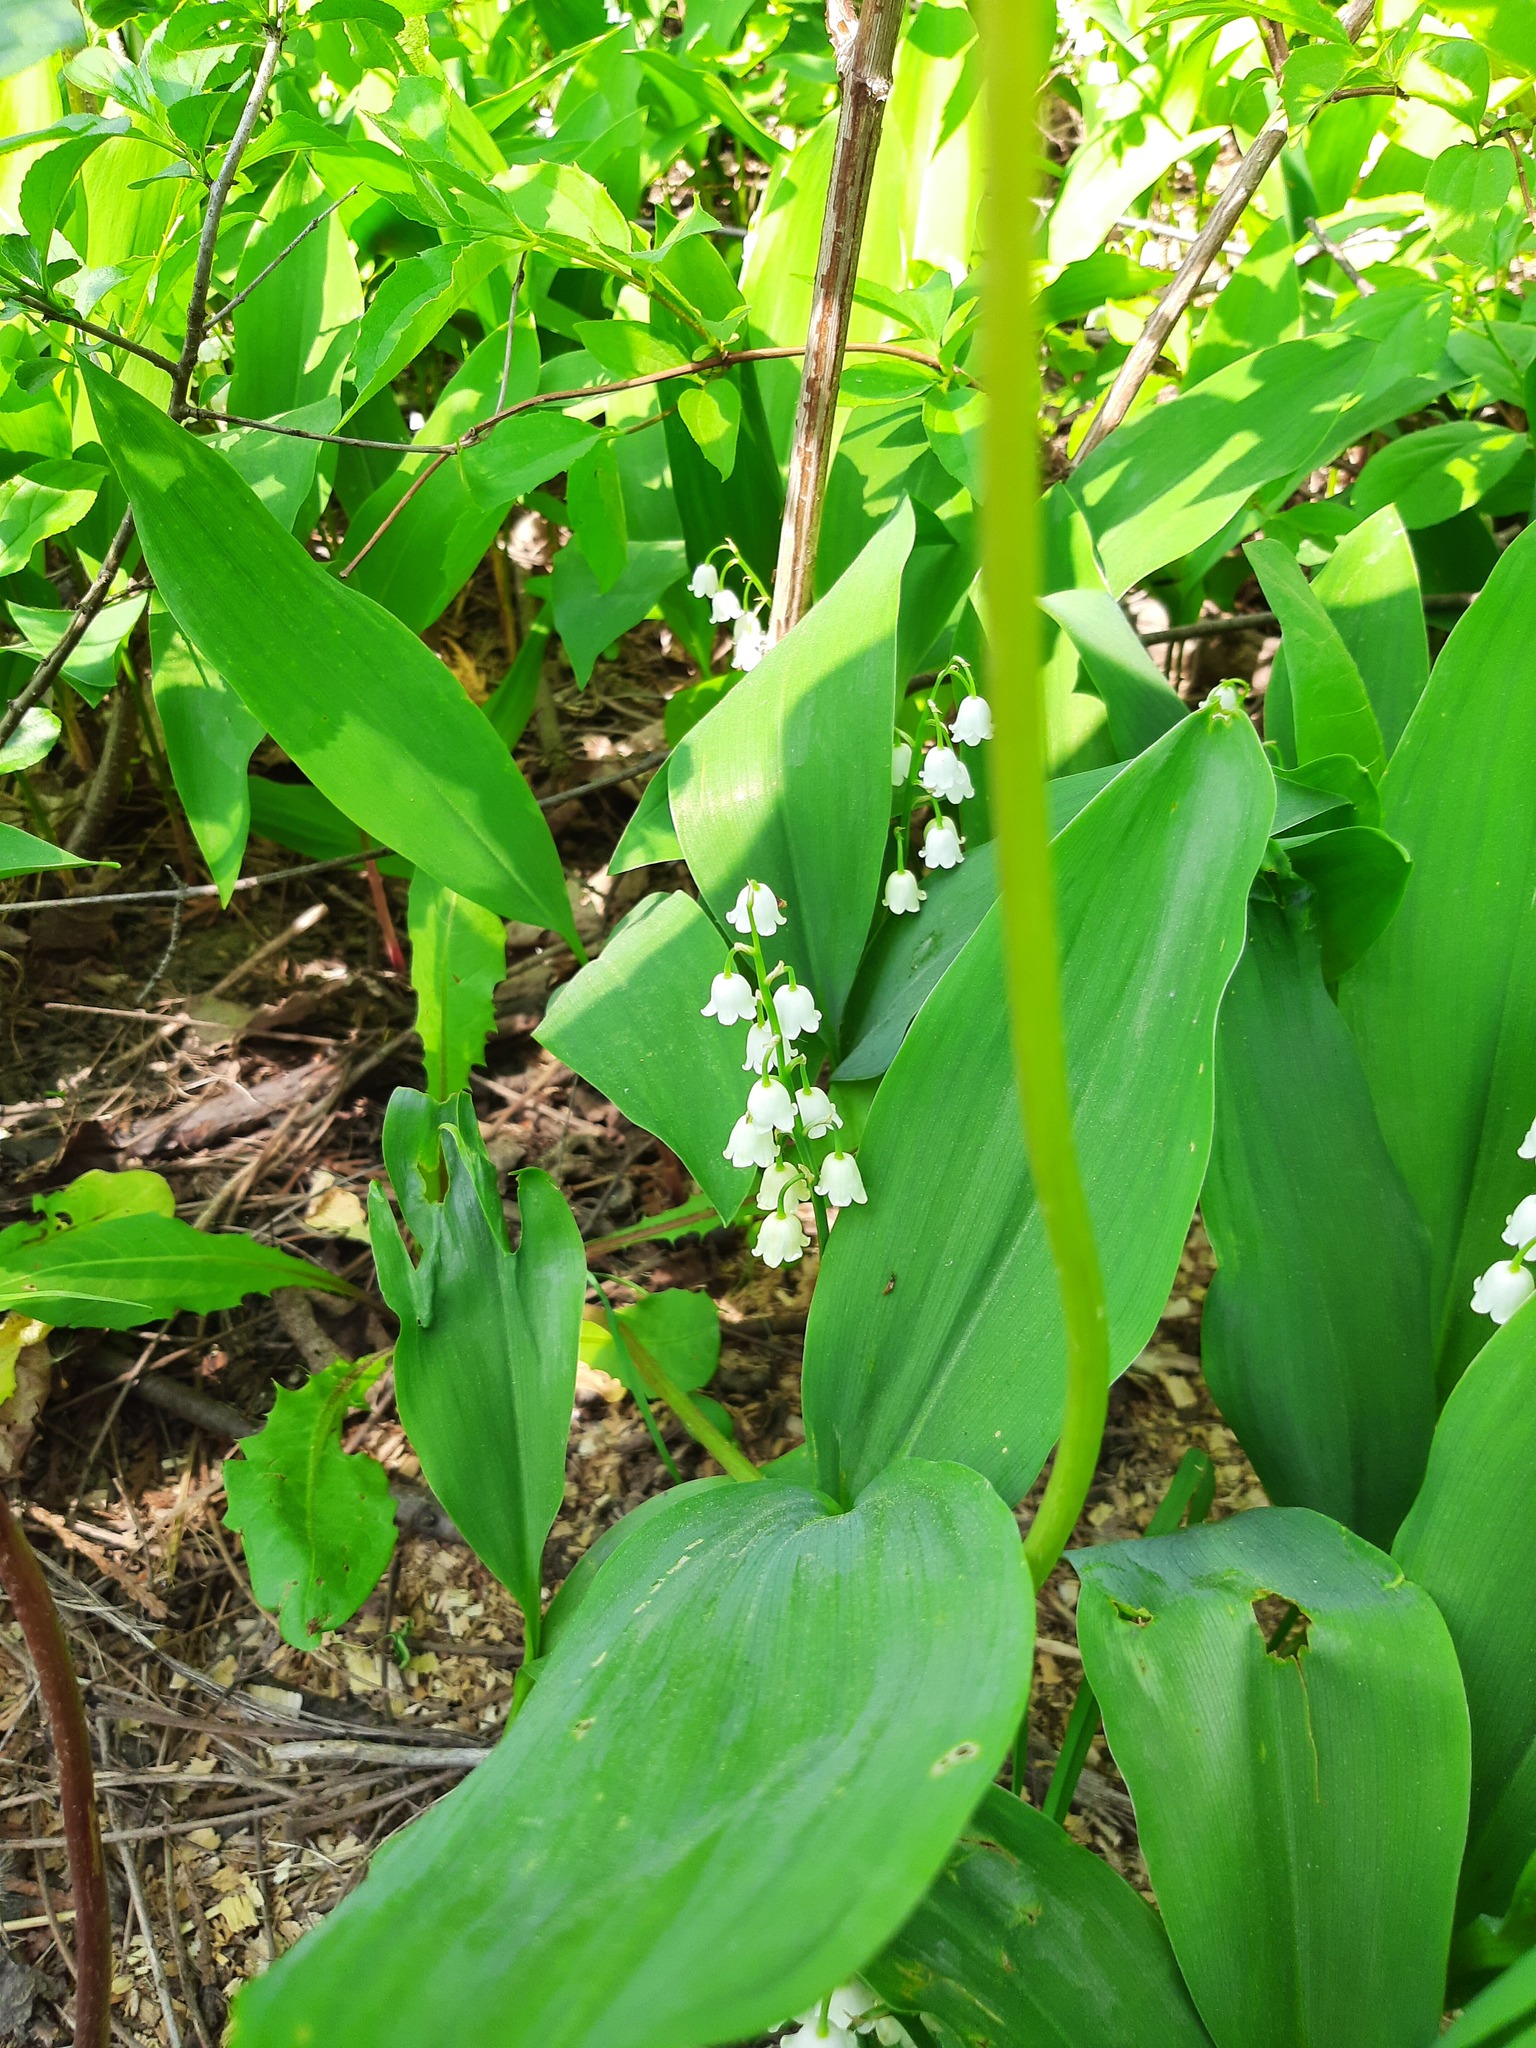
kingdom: Plantae
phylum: Tracheophyta
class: Liliopsida
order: Asparagales
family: Asparagaceae
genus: Convallaria
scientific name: Convallaria majalis
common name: Lily-of-the-valley
